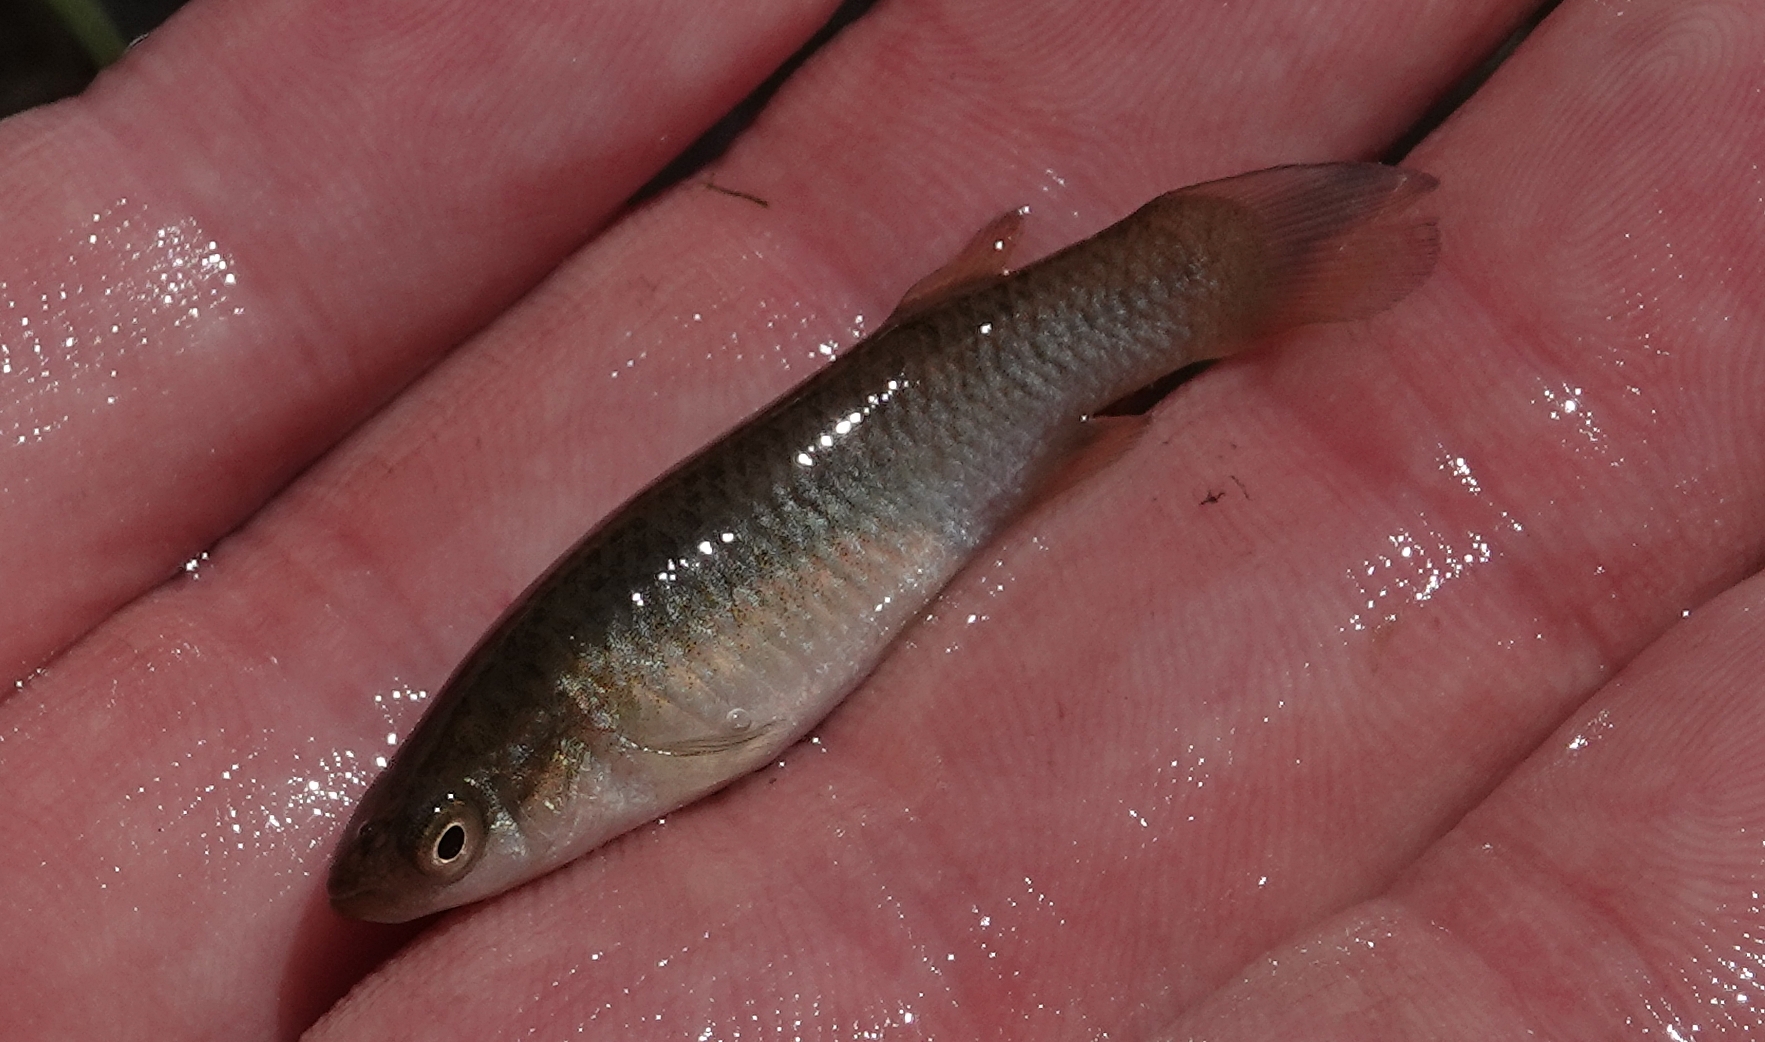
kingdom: Animalia
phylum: Chordata
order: Cyprinodontiformes
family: Fundulidae
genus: Fundulus
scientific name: Fundulus sciadicus
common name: Plains topminnow
